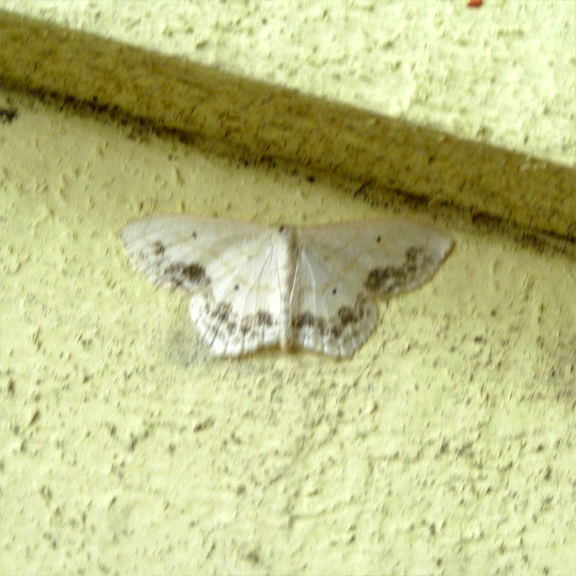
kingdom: Animalia
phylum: Arthropoda
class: Insecta
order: Lepidoptera
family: Geometridae
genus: Scopula
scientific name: Scopula limboundata
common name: Large lace border
